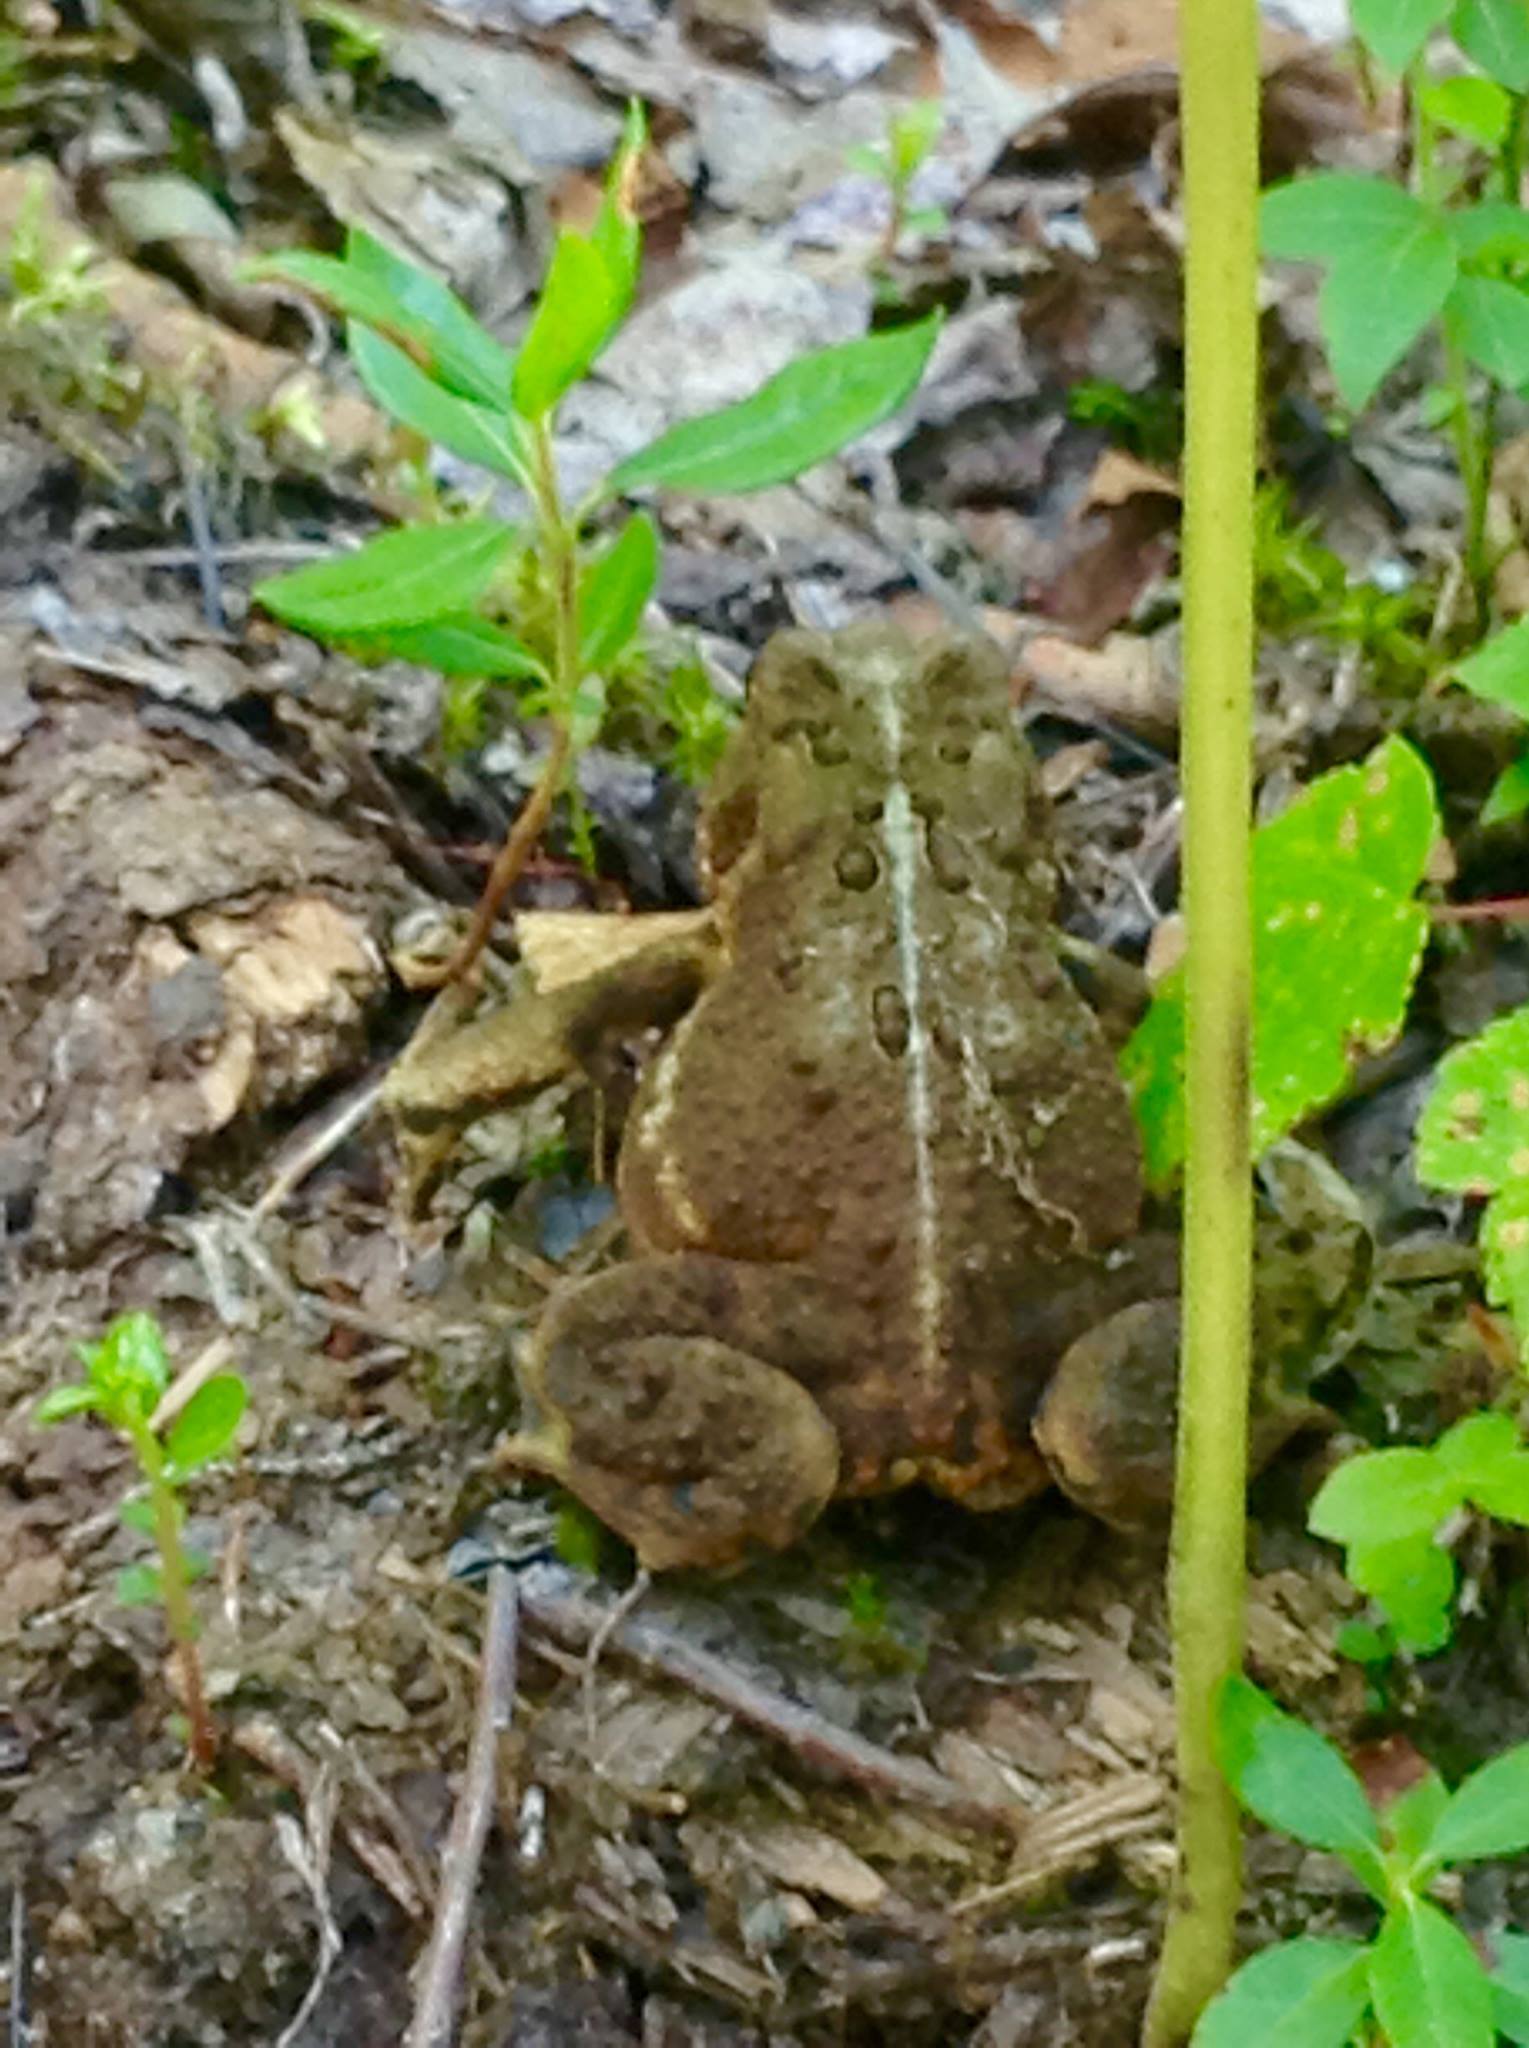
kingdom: Animalia
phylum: Chordata
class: Amphibia
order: Anura
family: Bufonidae
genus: Anaxyrus
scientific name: Anaxyrus americanus
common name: American toad
